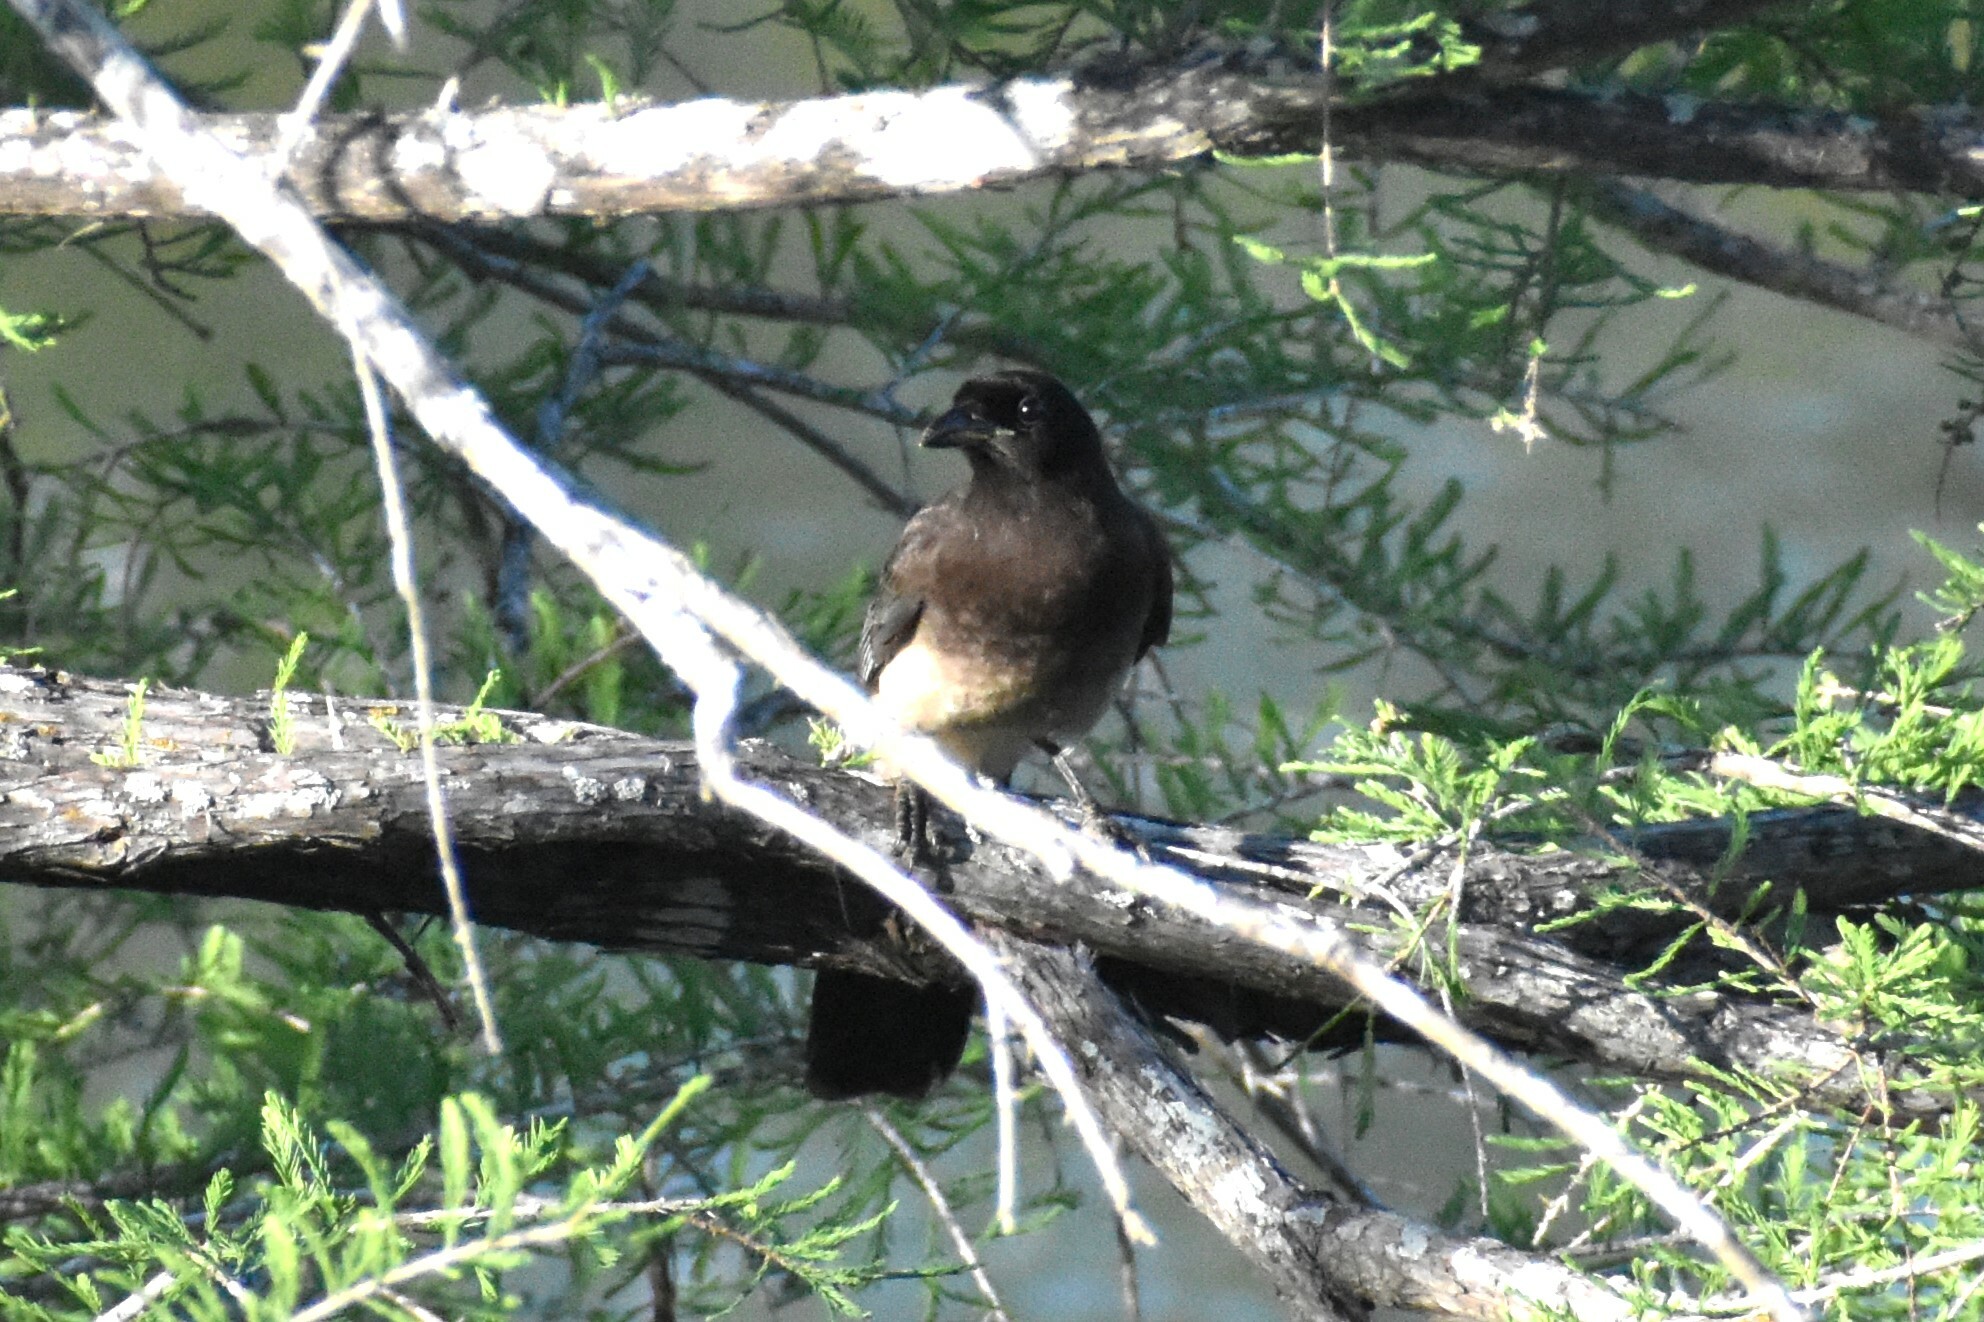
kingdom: Animalia
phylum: Chordata
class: Aves
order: Passeriformes
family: Corvidae
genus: Psilorhinus
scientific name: Psilorhinus morio
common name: Brown jay
